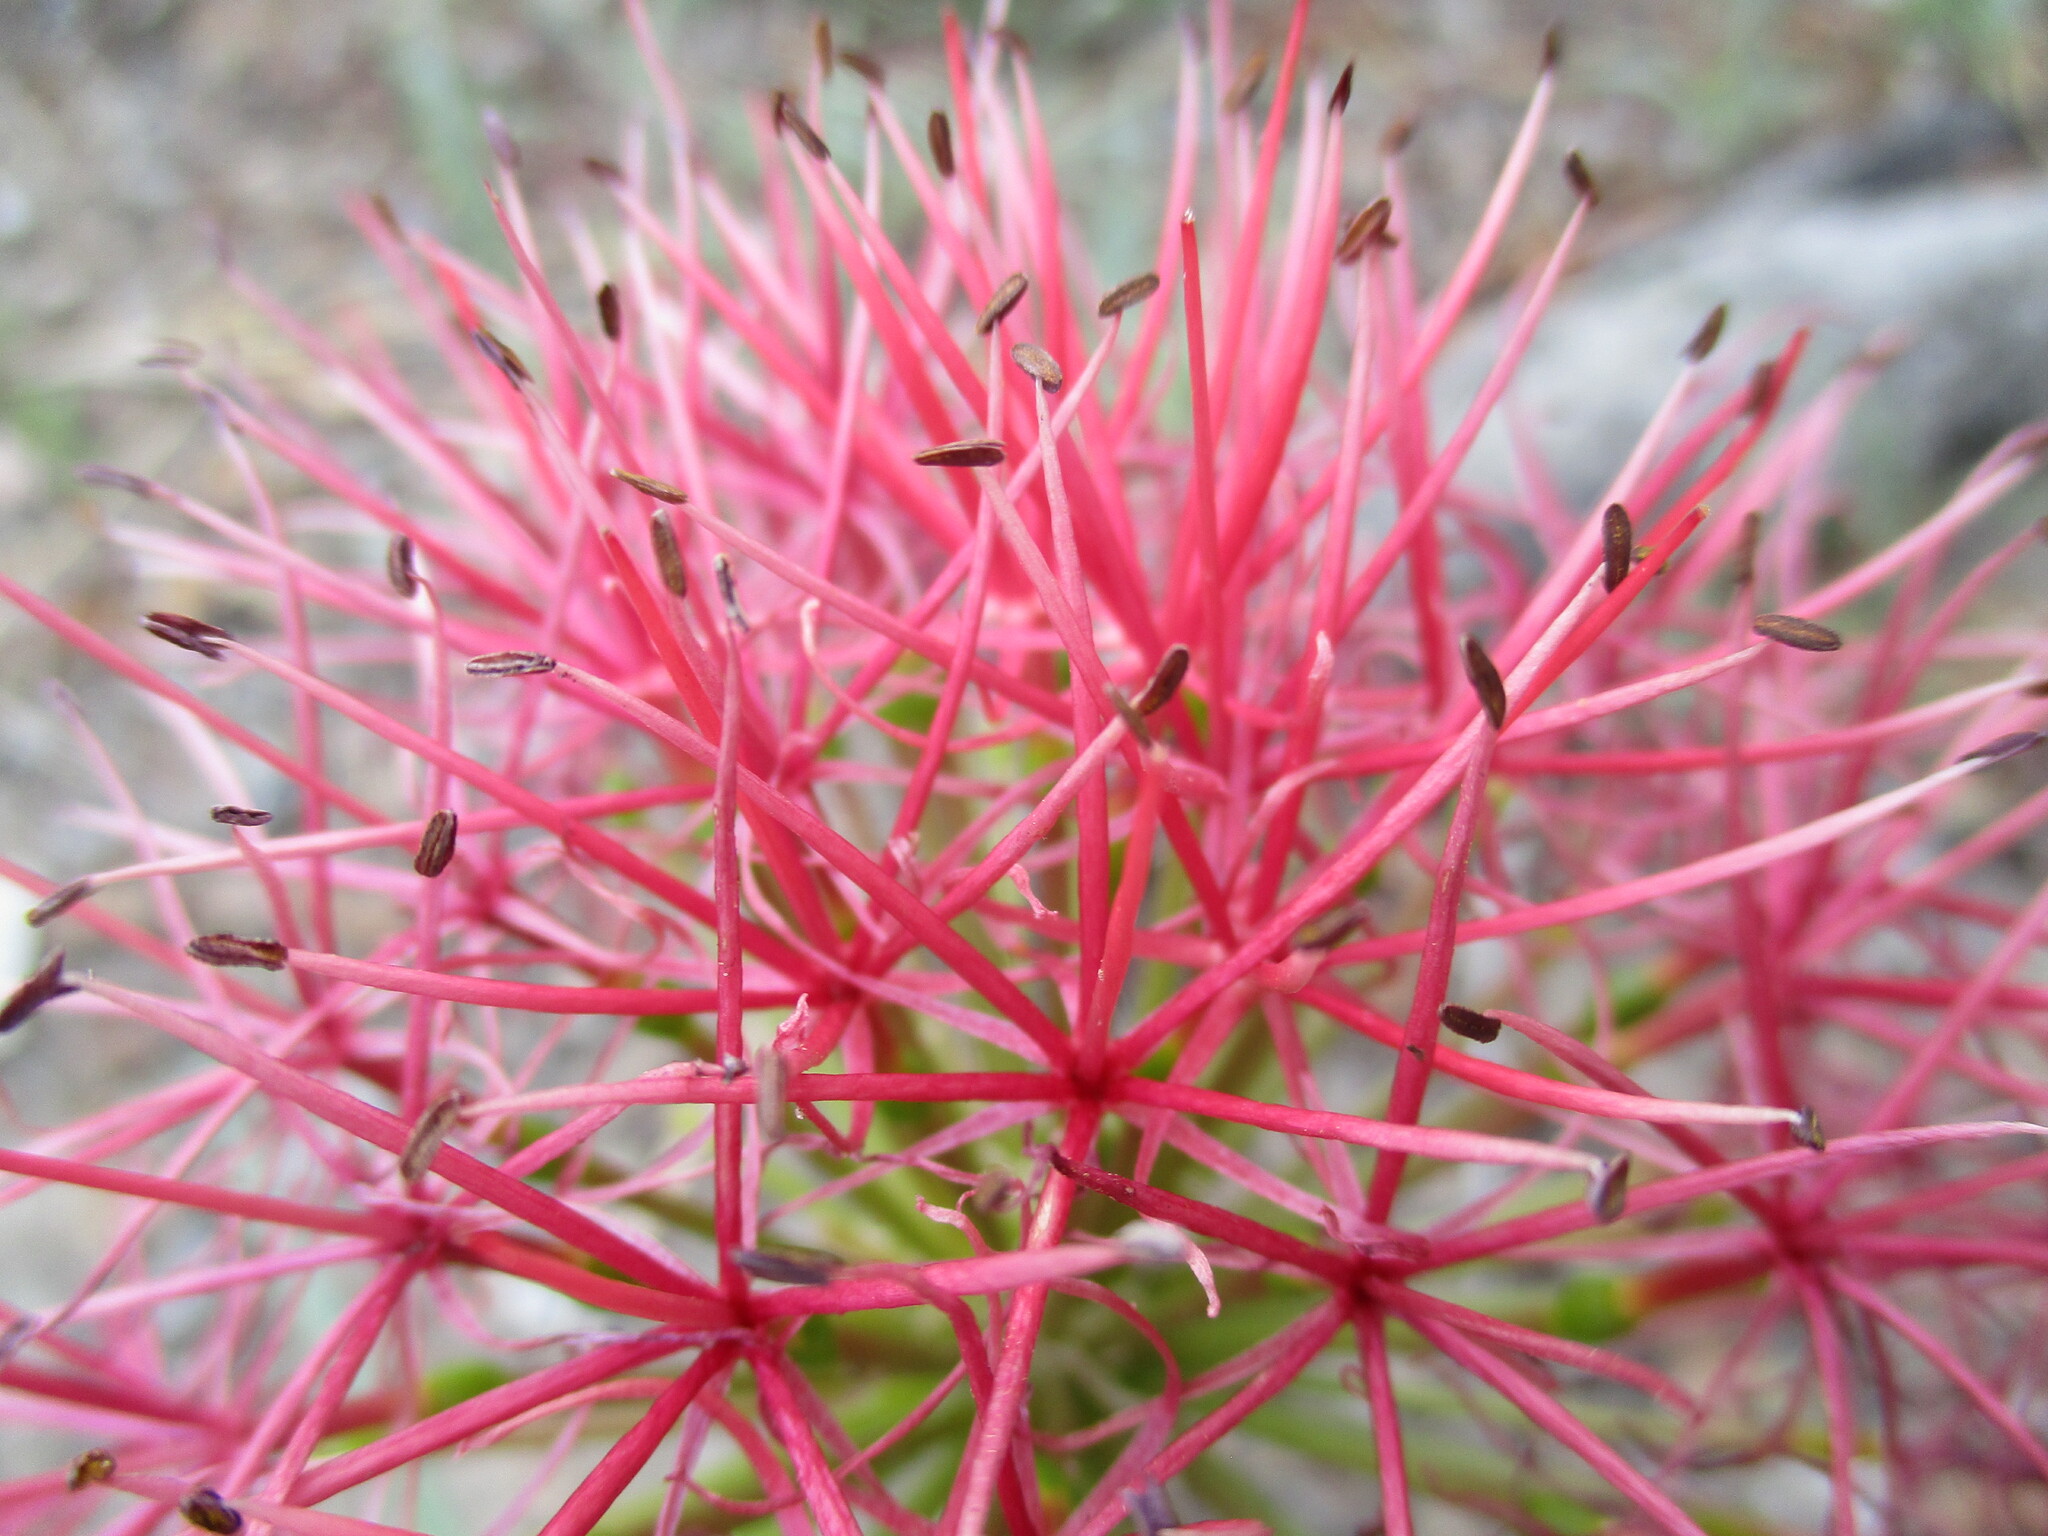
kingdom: Plantae
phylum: Tracheophyta
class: Liliopsida
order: Asparagales
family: Amaryllidaceae
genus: Scadoxus
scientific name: Scadoxus multiflorus
